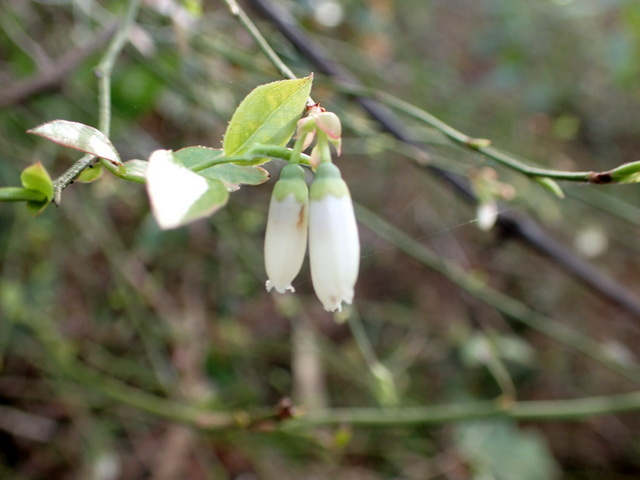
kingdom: Plantae
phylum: Tracheophyta
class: Magnoliopsida
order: Ericales
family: Ericaceae
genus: Vaccinium
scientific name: Vaccinium corymbosum
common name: Blueberry
